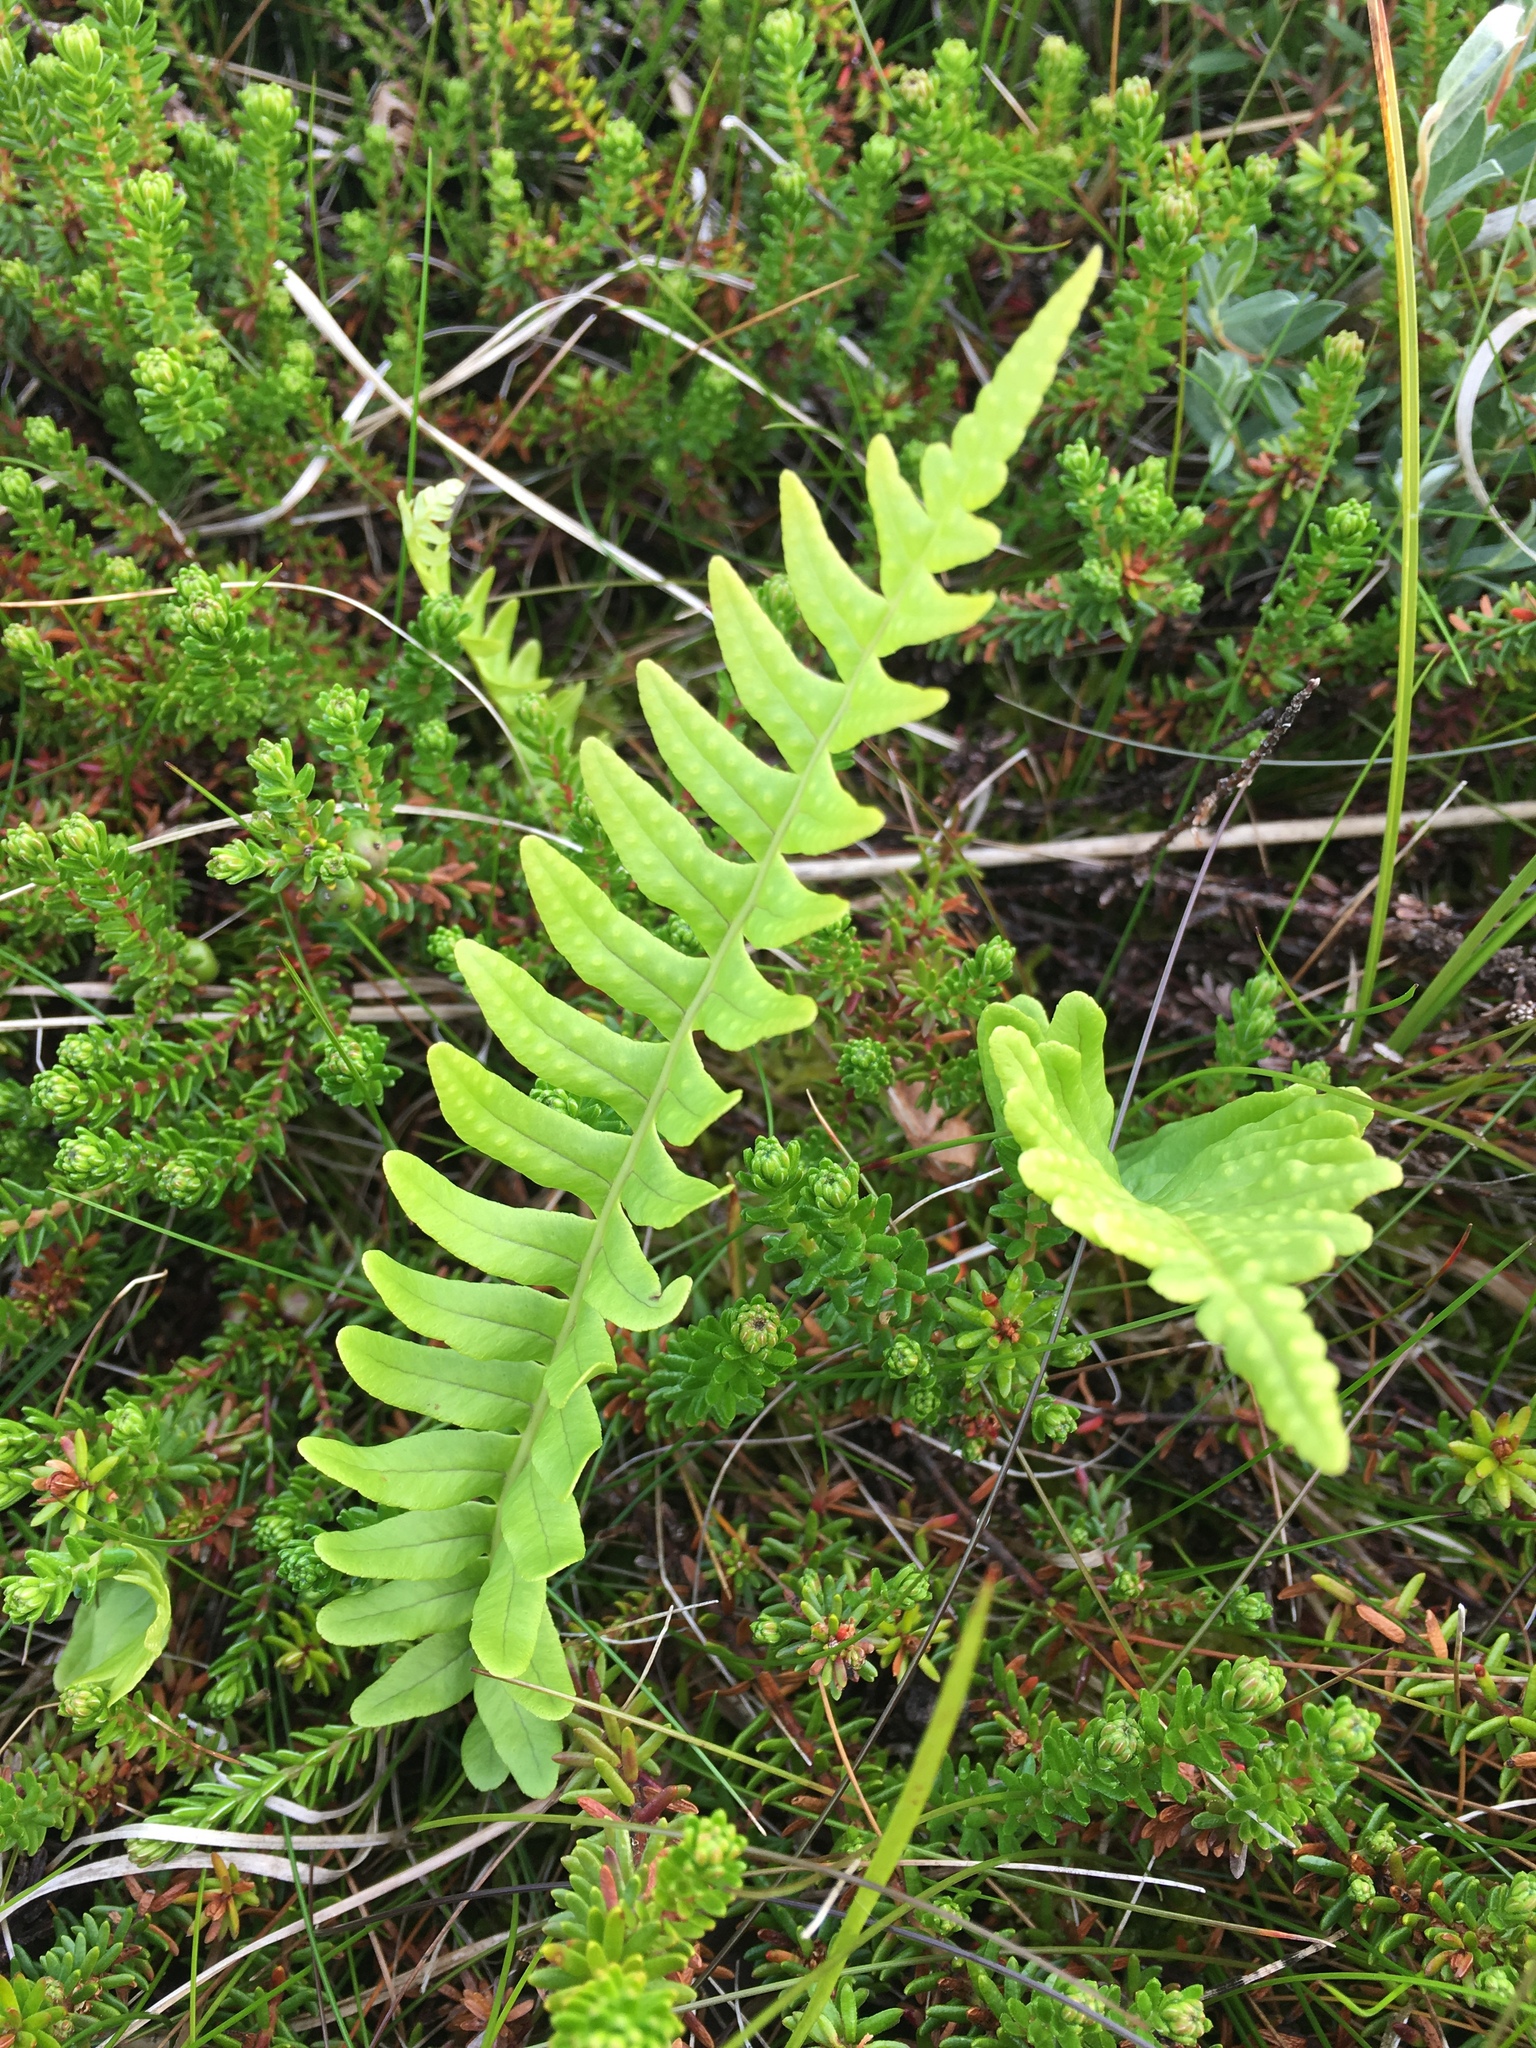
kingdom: Plantae
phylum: Tracheophyta
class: Polypodiopsida
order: Polypodiales
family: Polypodiaceae
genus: Polypodium
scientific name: Polypodium vulgare
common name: Common polypody
